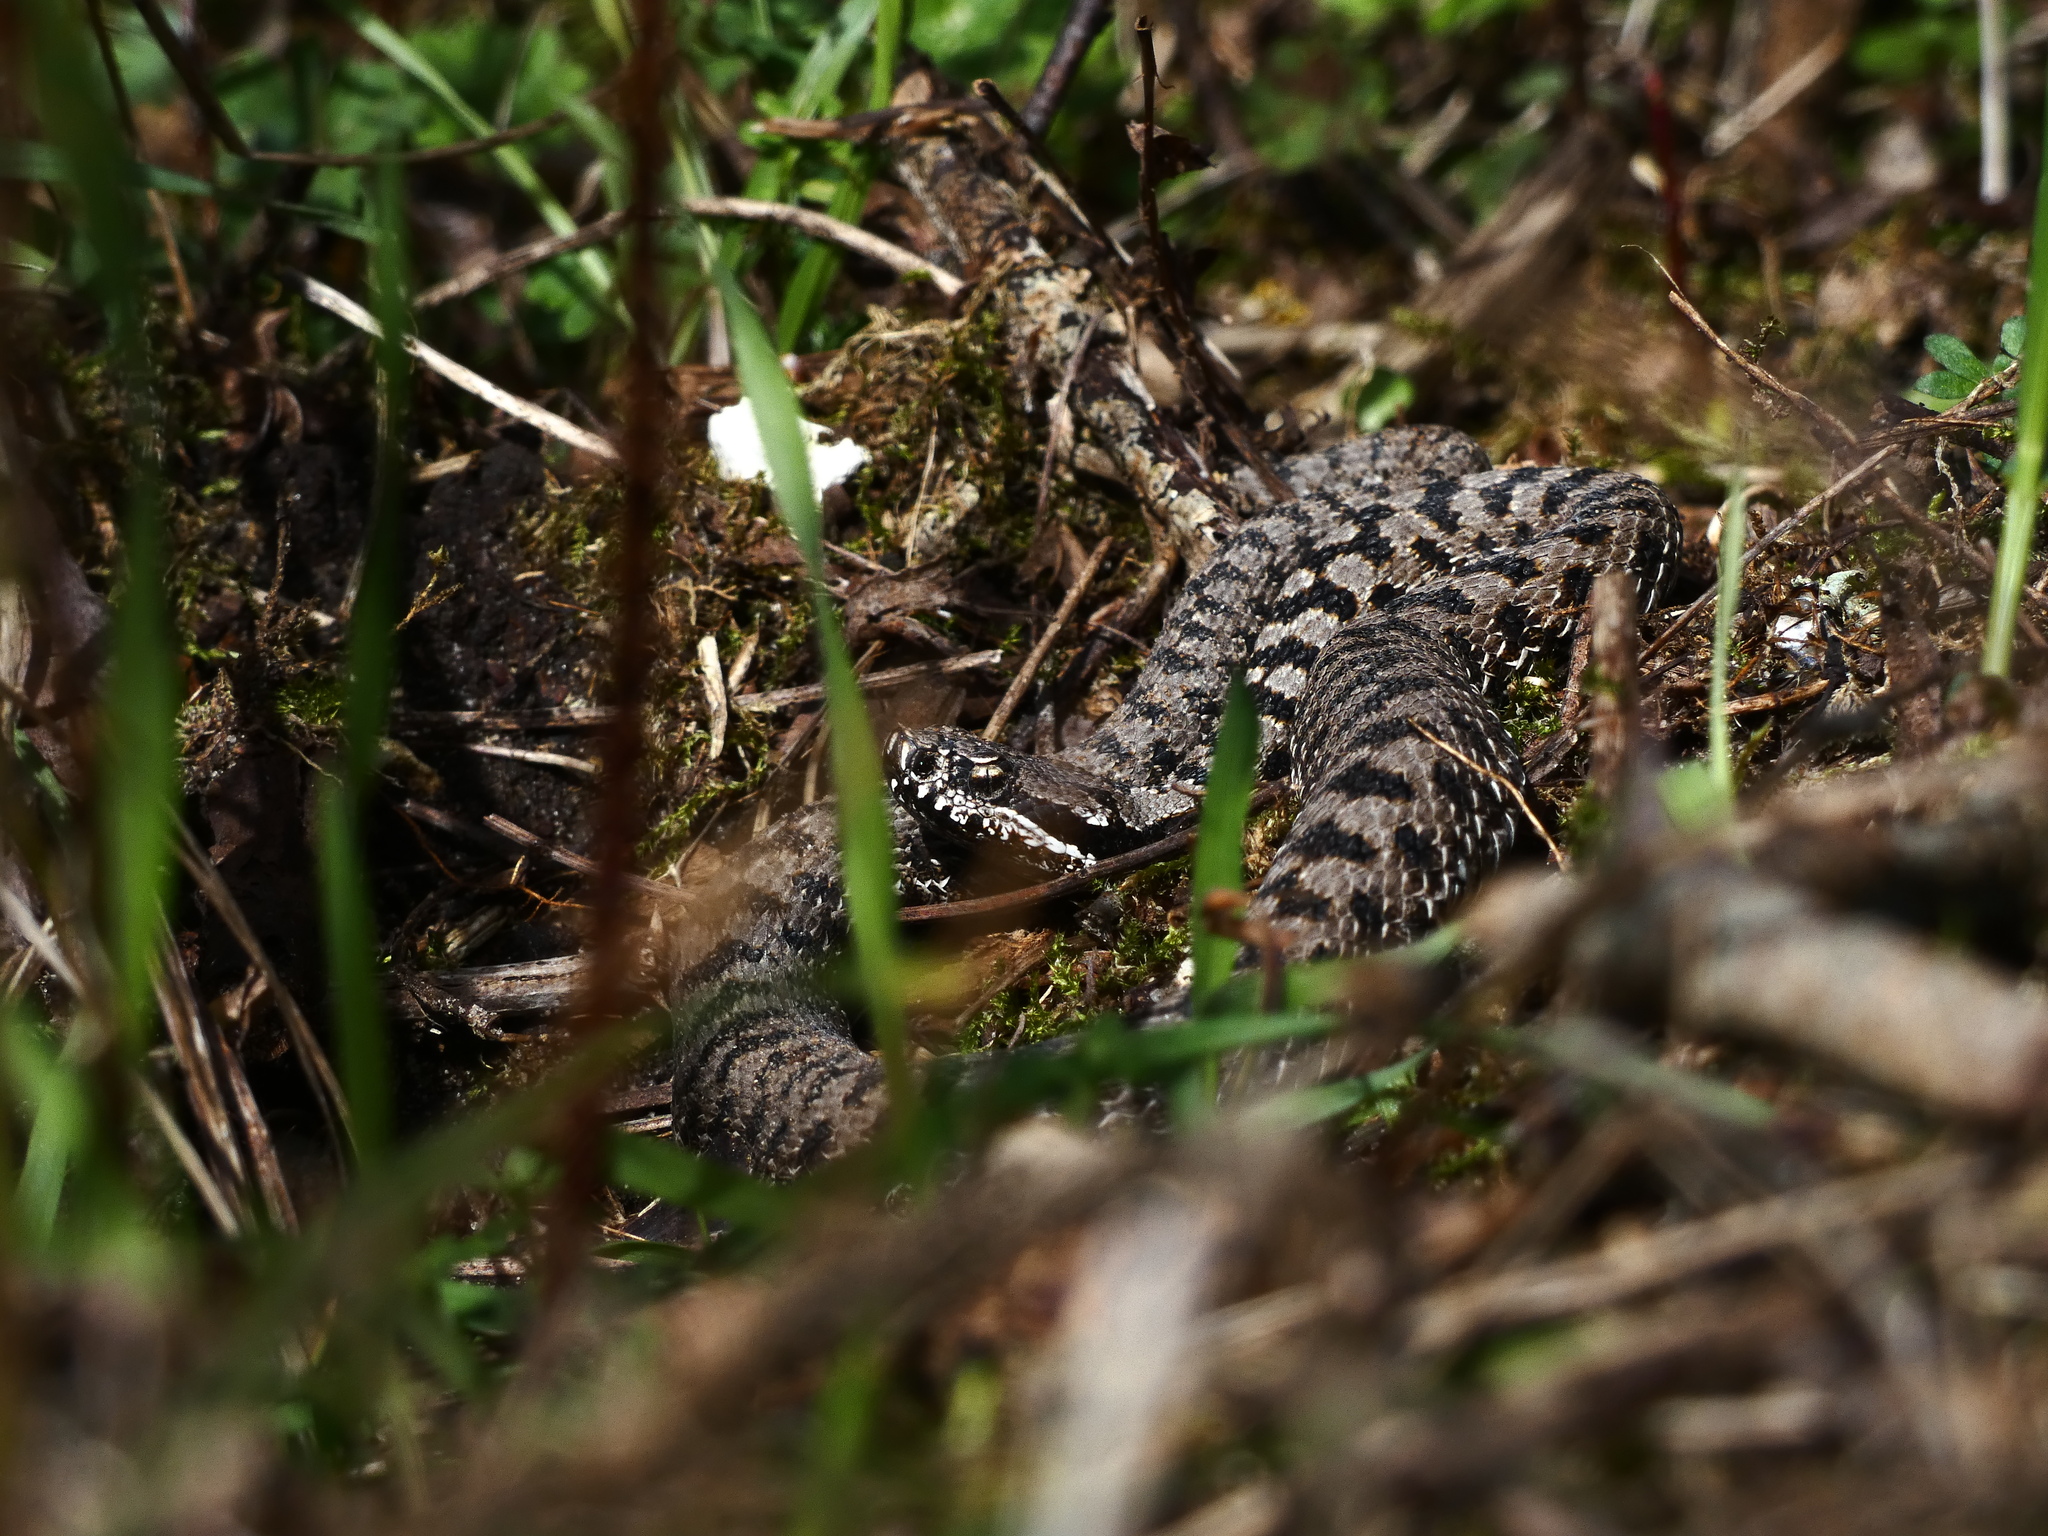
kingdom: Animalia
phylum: Chordata
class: Squamata
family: Viperidae
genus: Vipera
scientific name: Vipera aspis
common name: Asp viper
